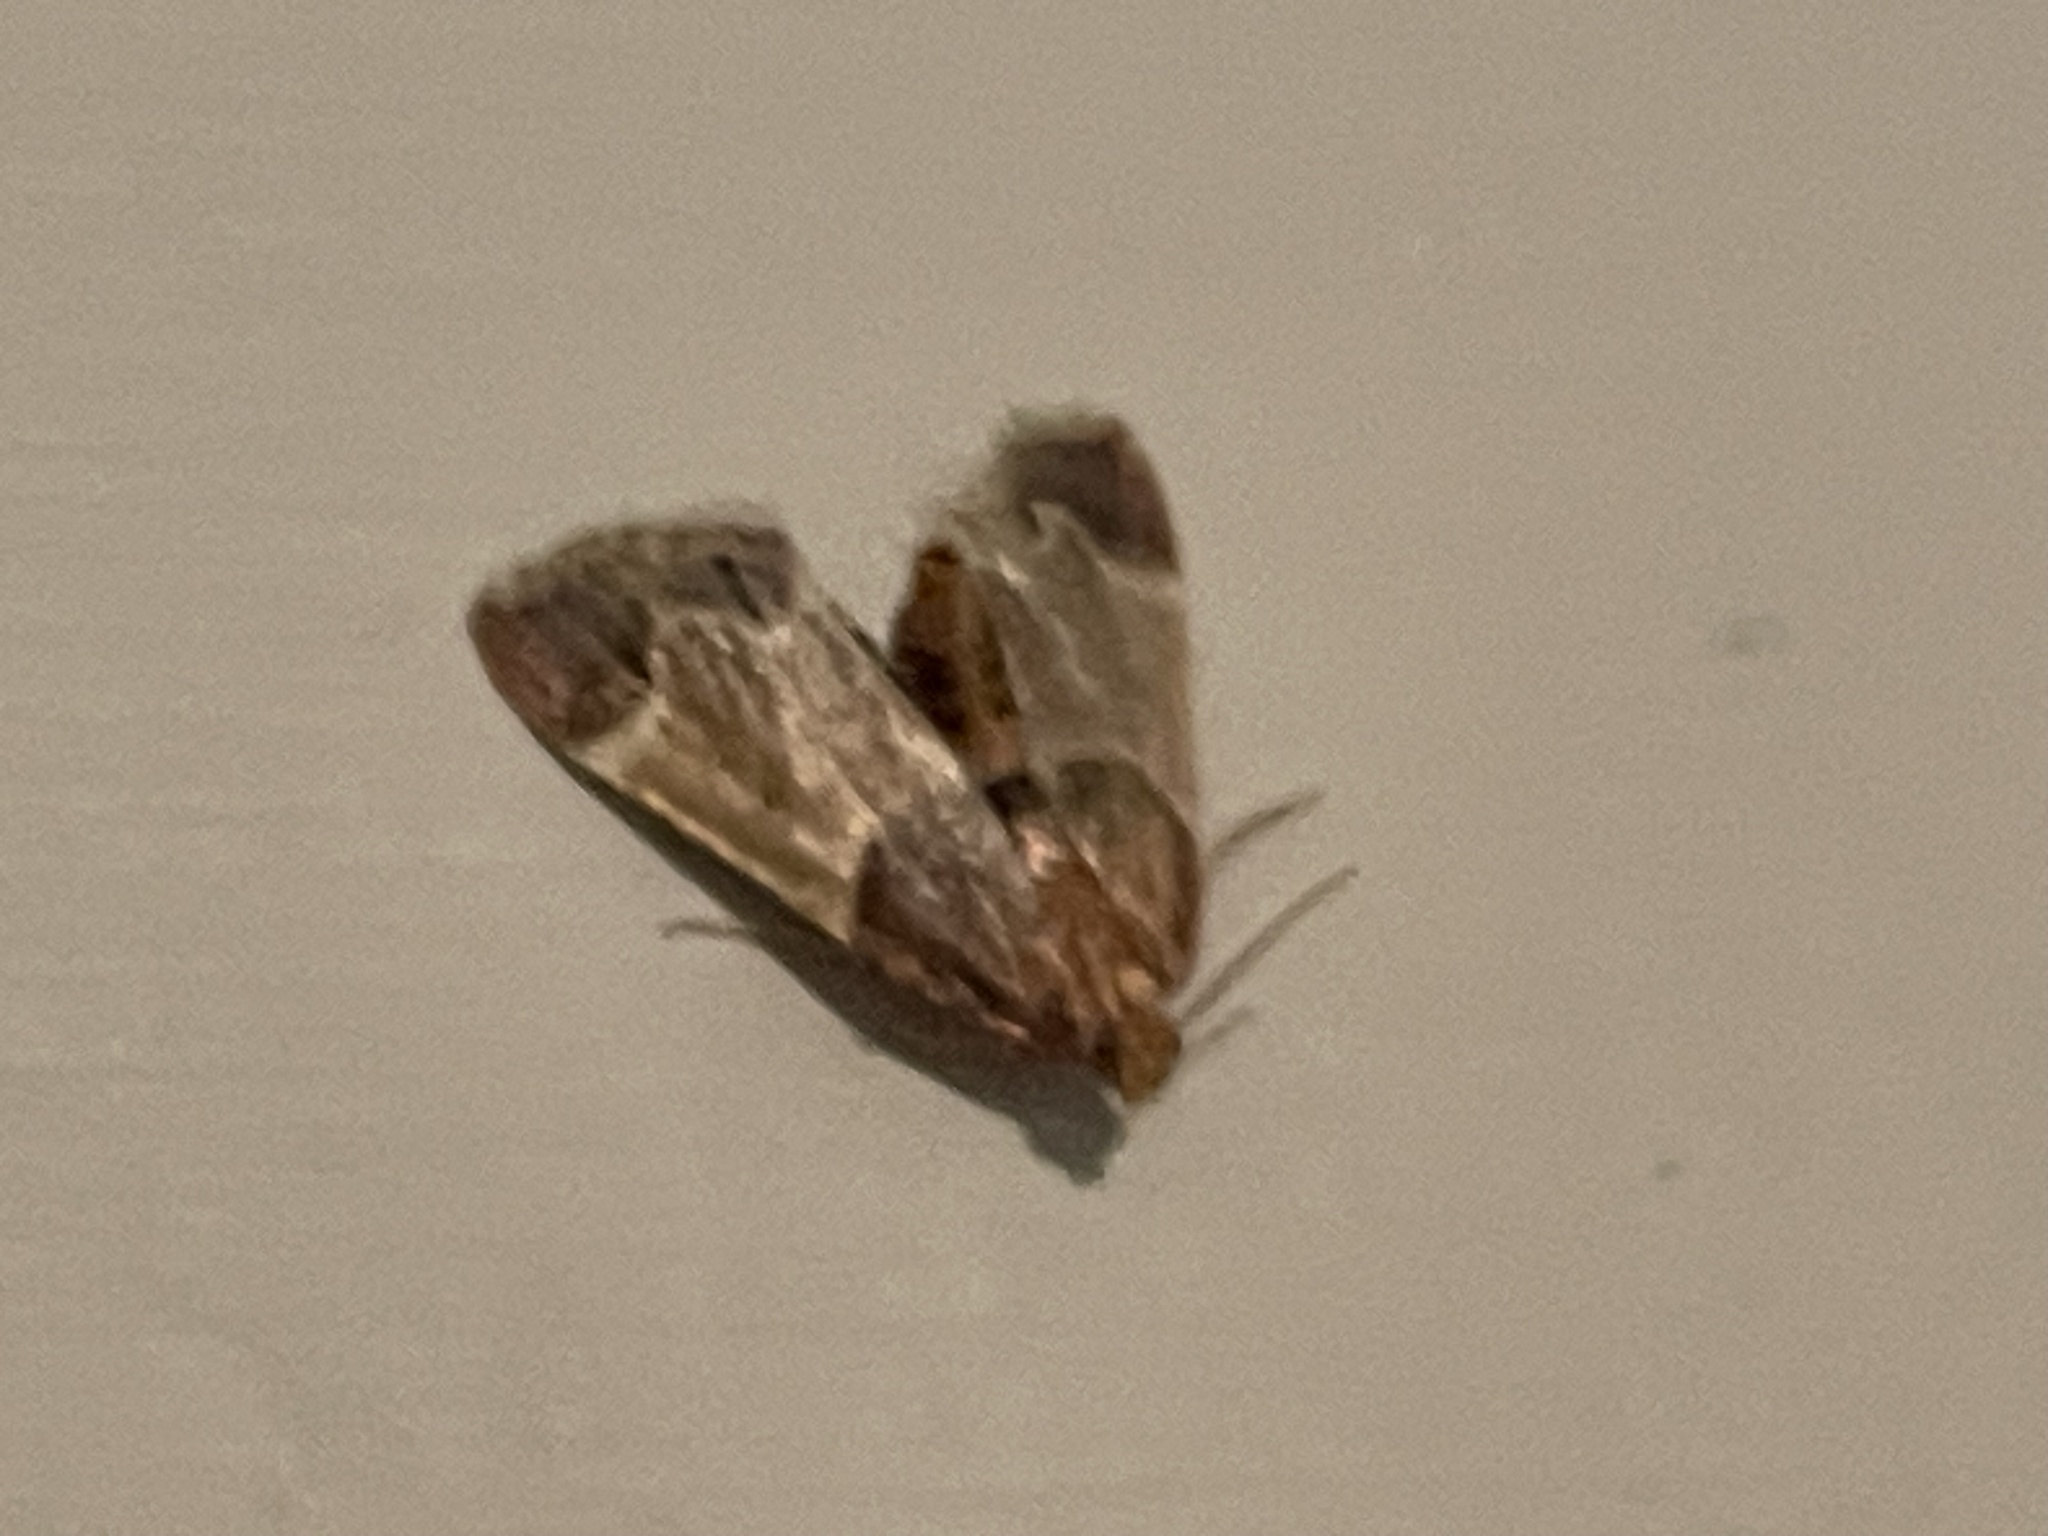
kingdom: Animalia
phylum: Arthropoda
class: Insecta
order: Lepidoptera
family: Pyralidae
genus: Pyralis
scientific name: Pyralis farinalis
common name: Meal moth
